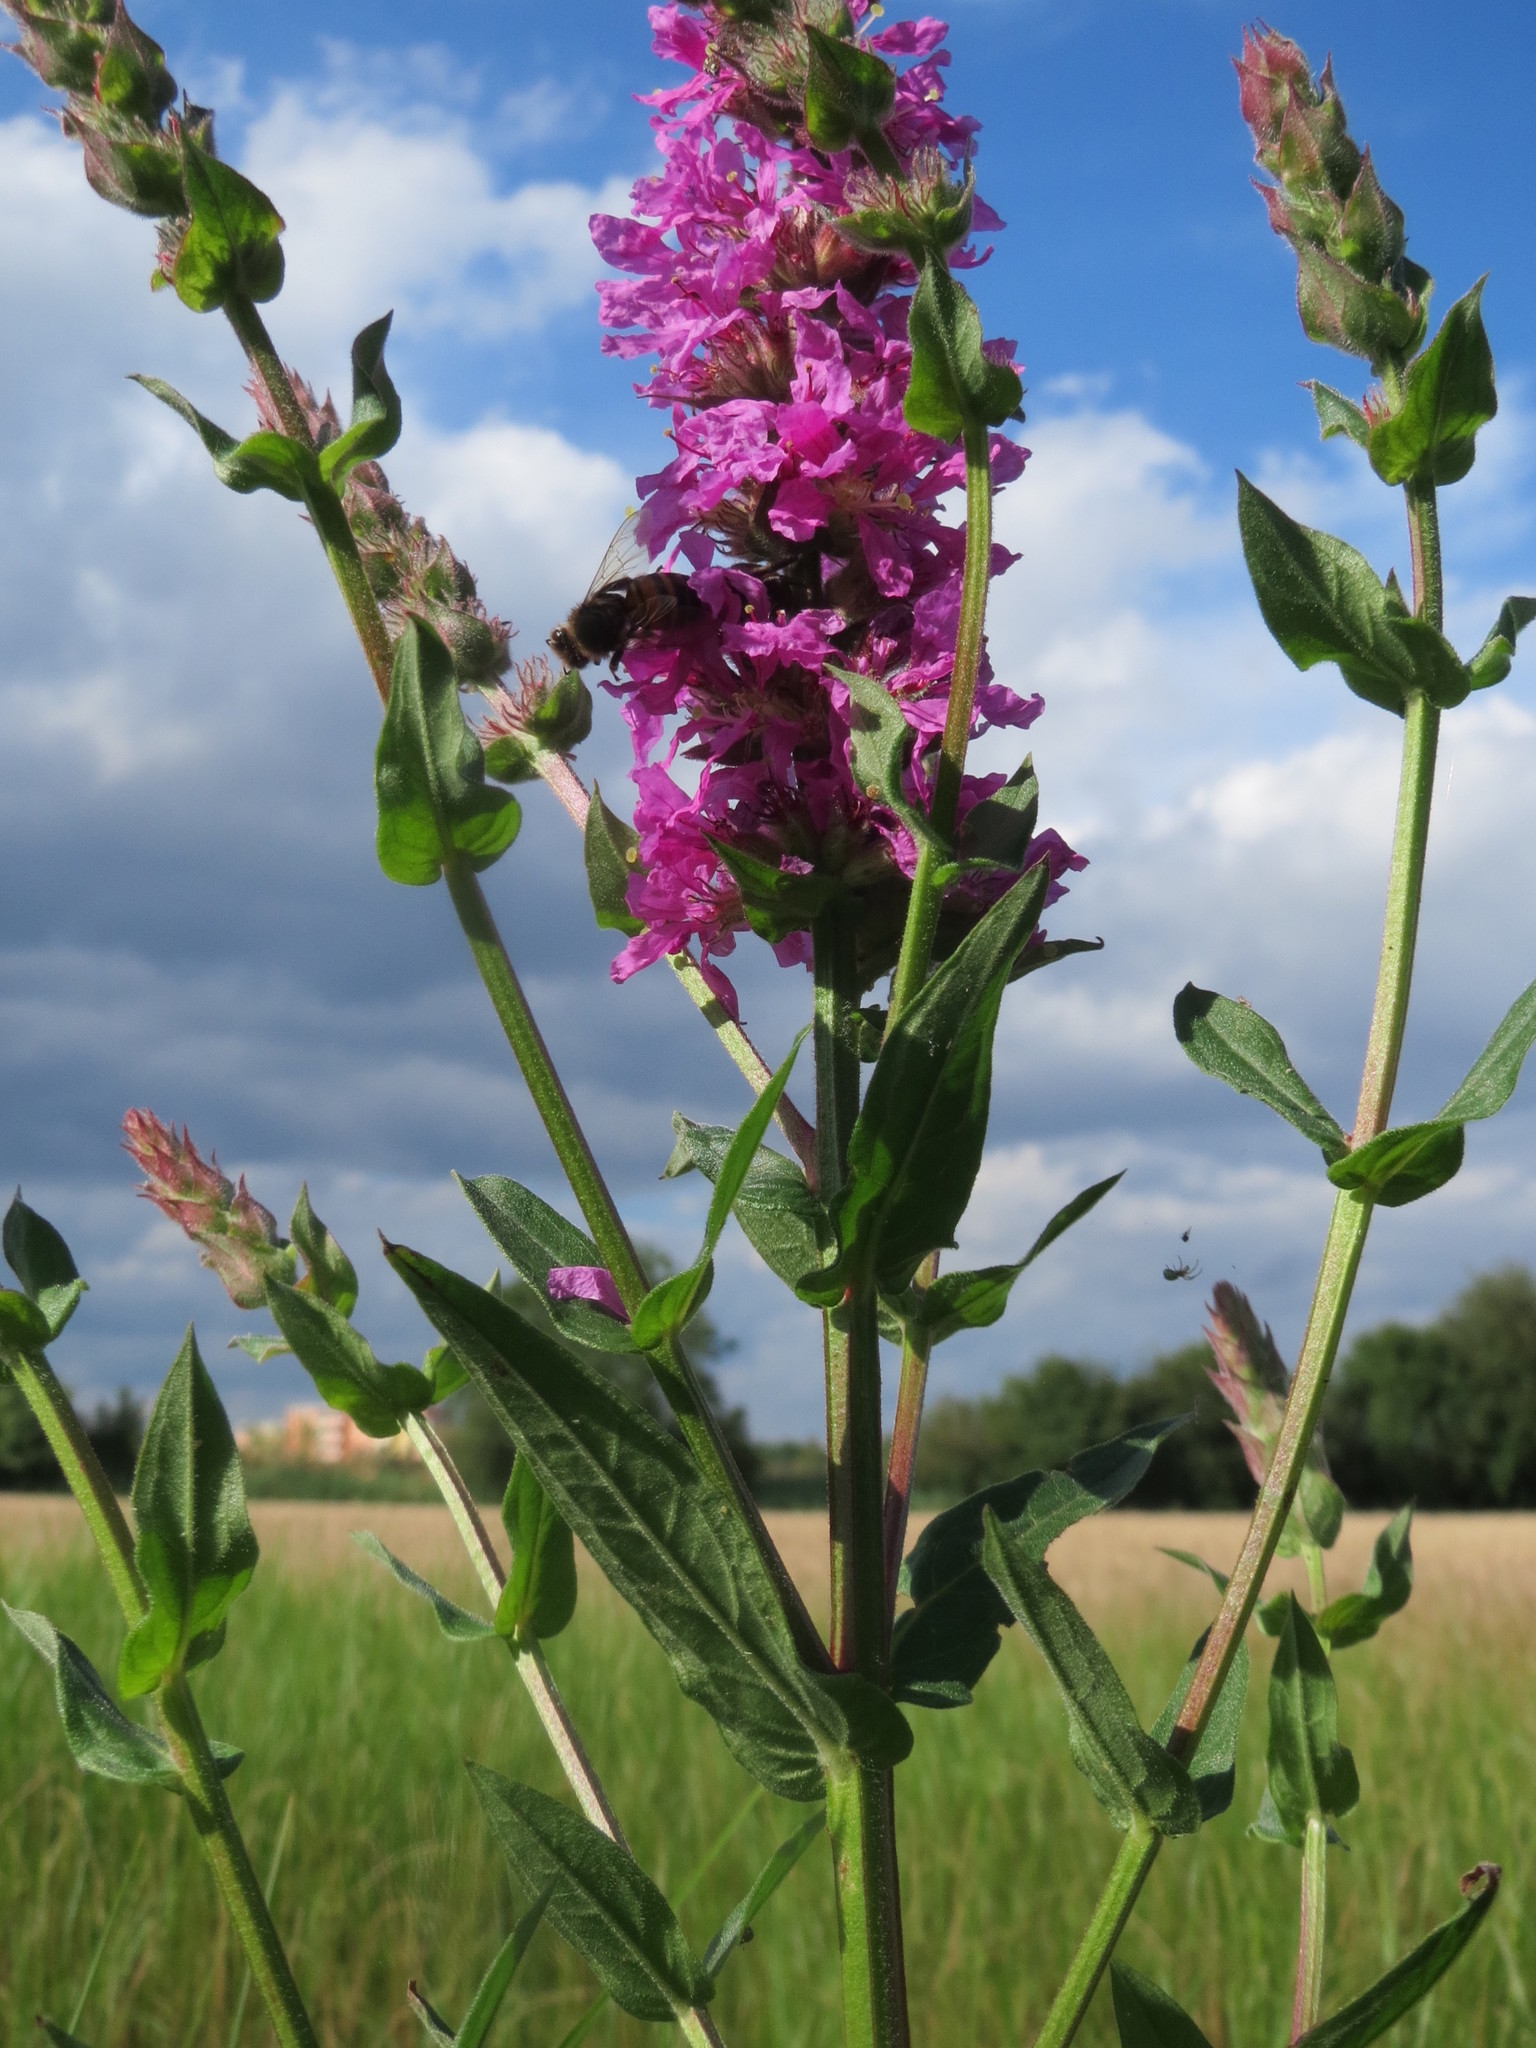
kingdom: Plantae
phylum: Tracheophyta
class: Magnoliopsida
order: Myrtales
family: Lythraceae
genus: Lythrum
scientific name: Lythrum salicaria
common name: Purple loosestrife
